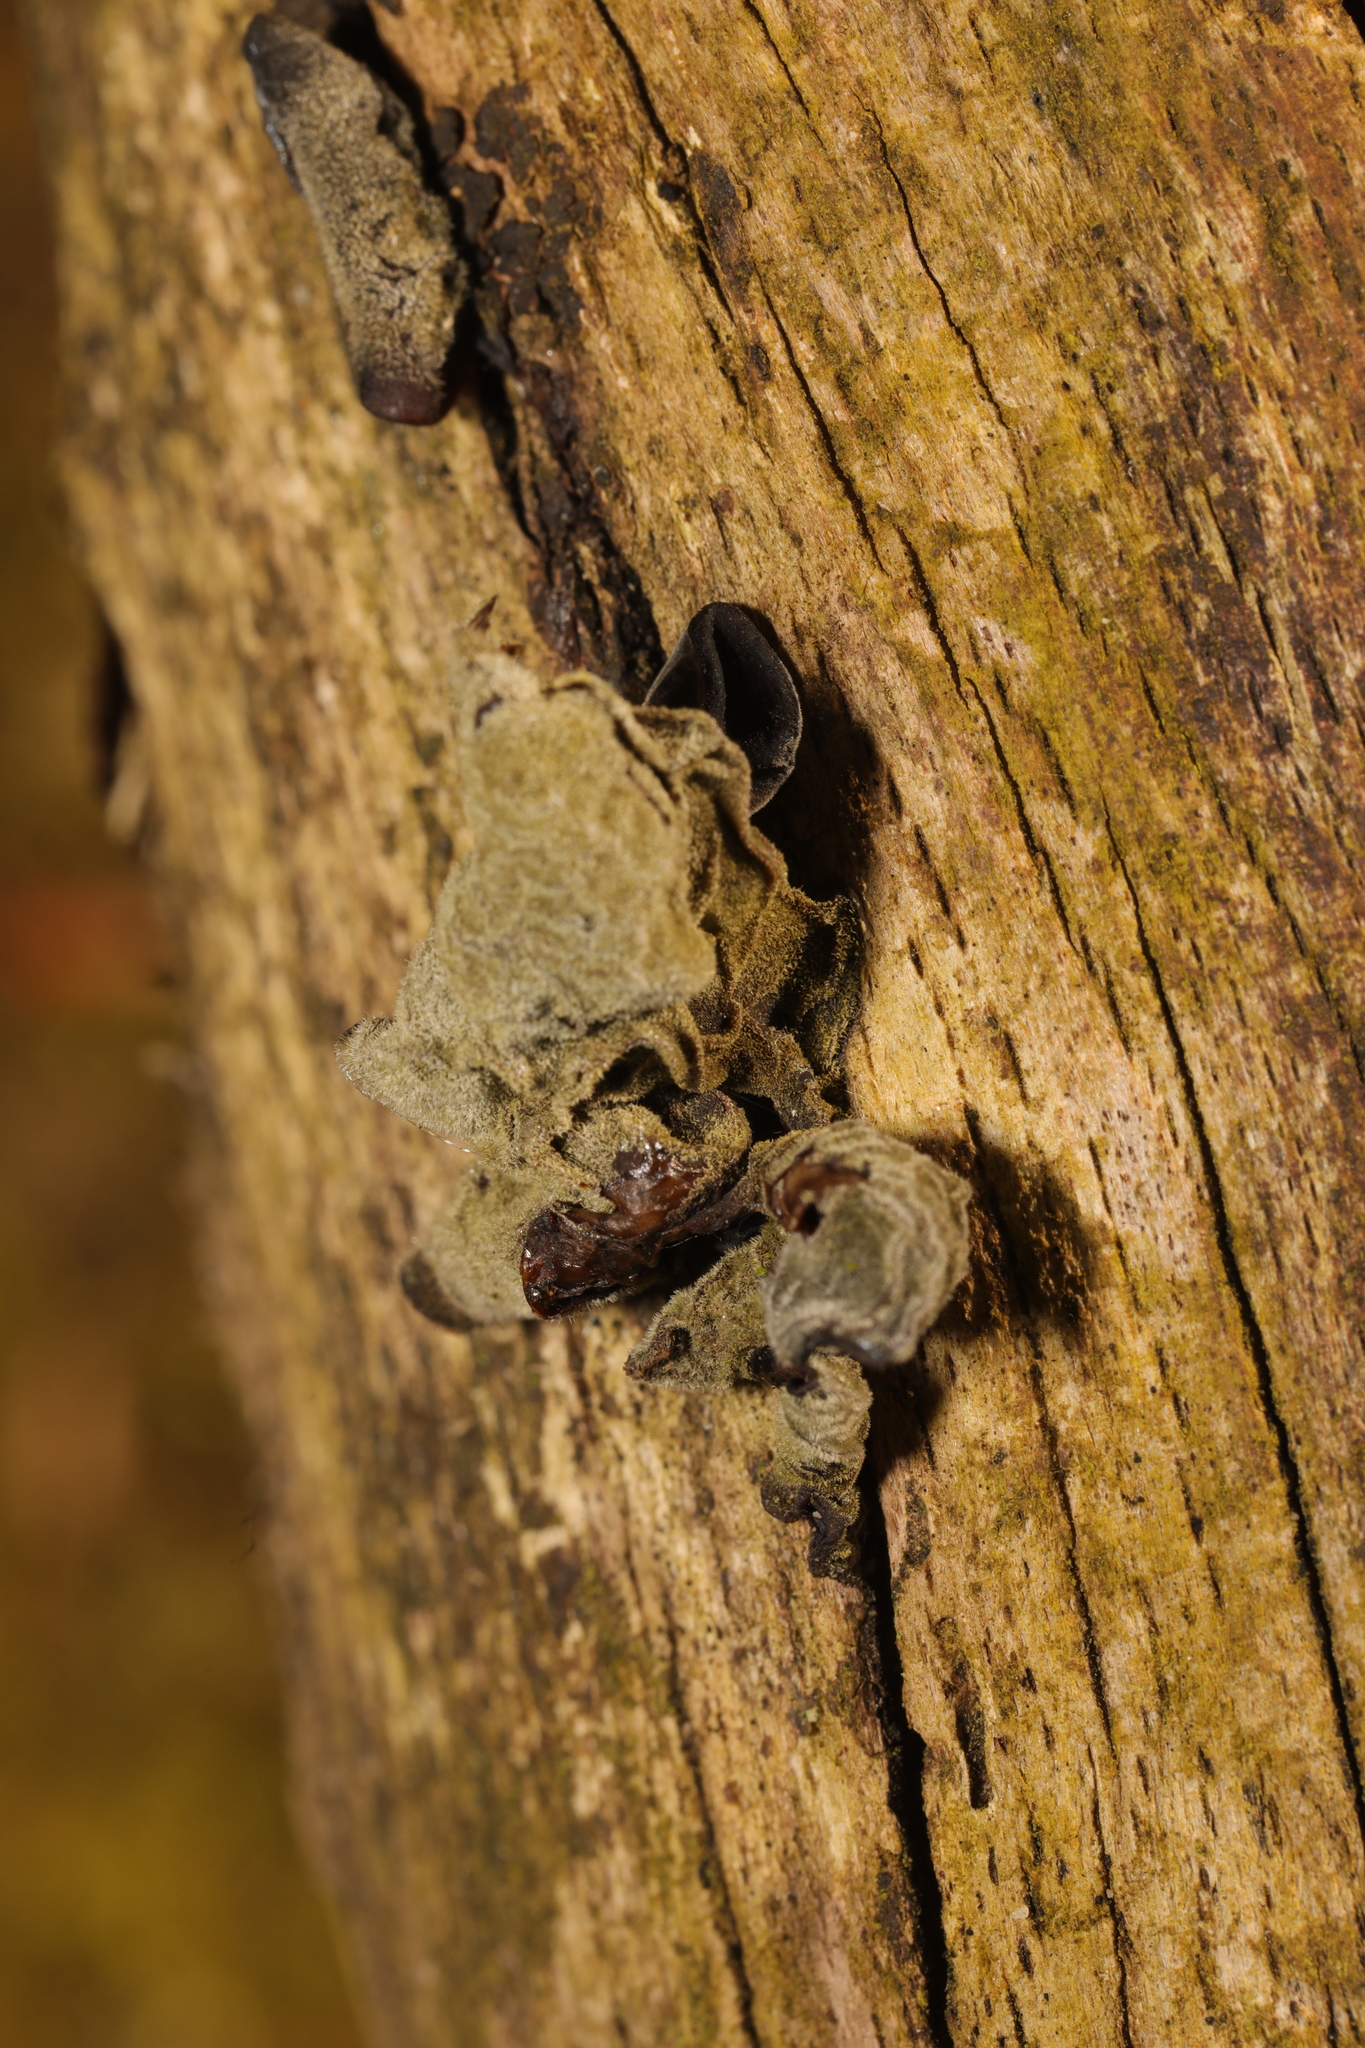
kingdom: Fungi
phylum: Basidiomycota
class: Agaricomycetes
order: Auriculariales
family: Auriculariaceae
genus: Auricularia
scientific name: Auricularia auricula-judae
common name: Jelly ear
